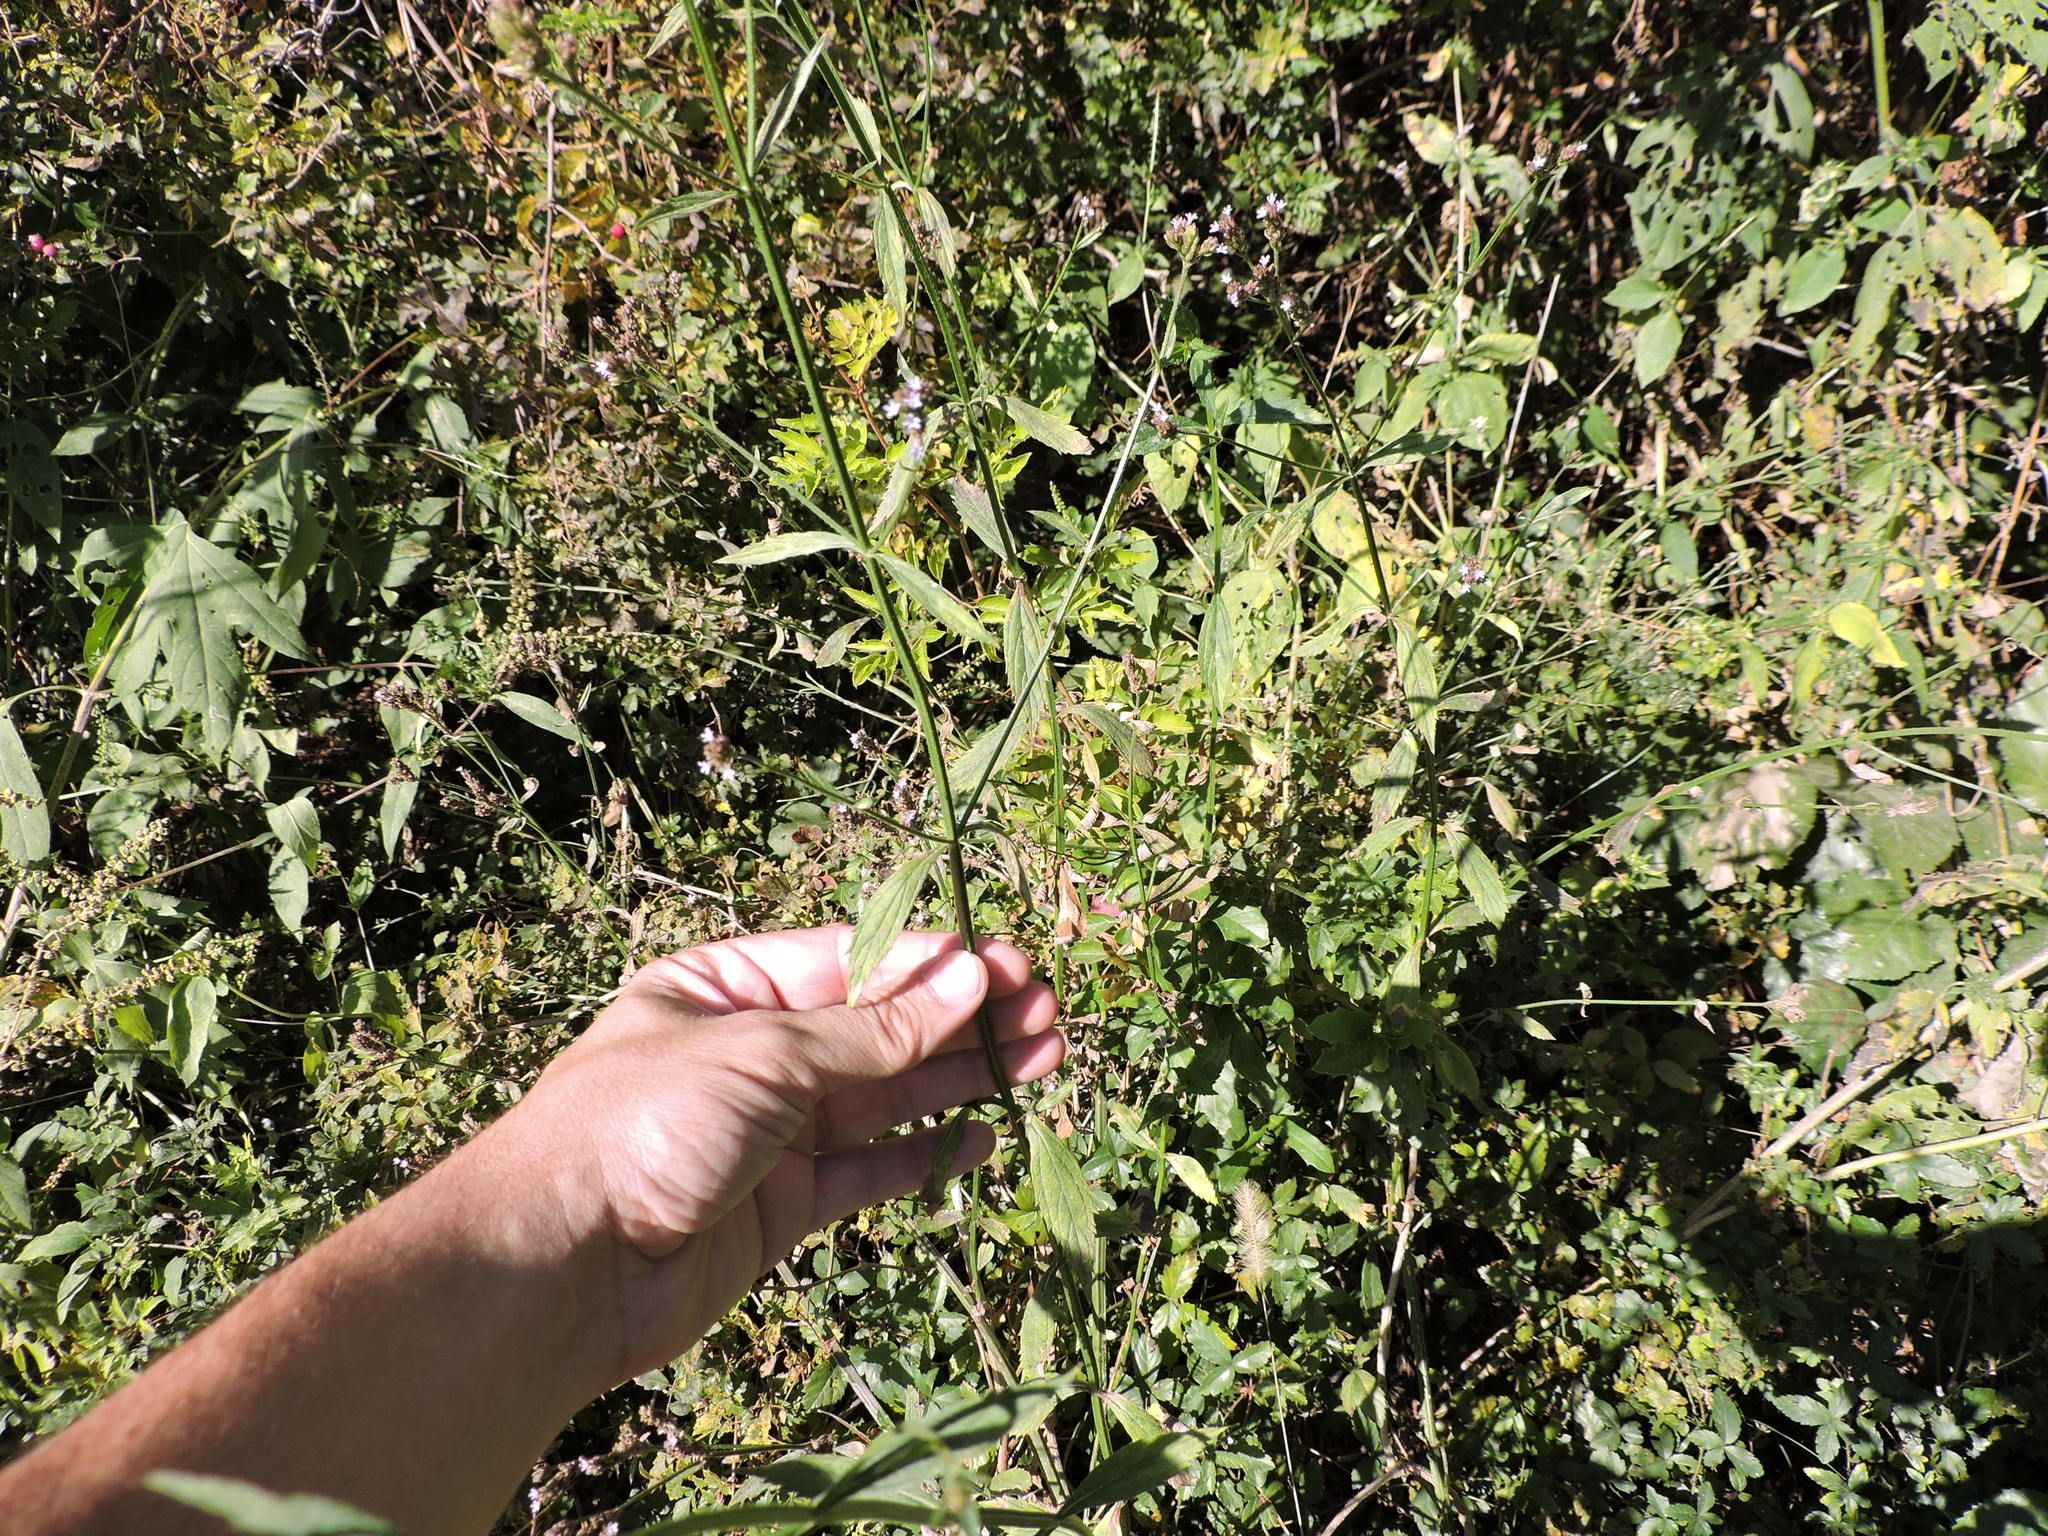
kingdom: Plantae
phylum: Tracheophyta
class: Magnoliopsida
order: Lamiales
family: Verbenaceae
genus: Verbena
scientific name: Verbena brasiliensis
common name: Brazilian vervain
